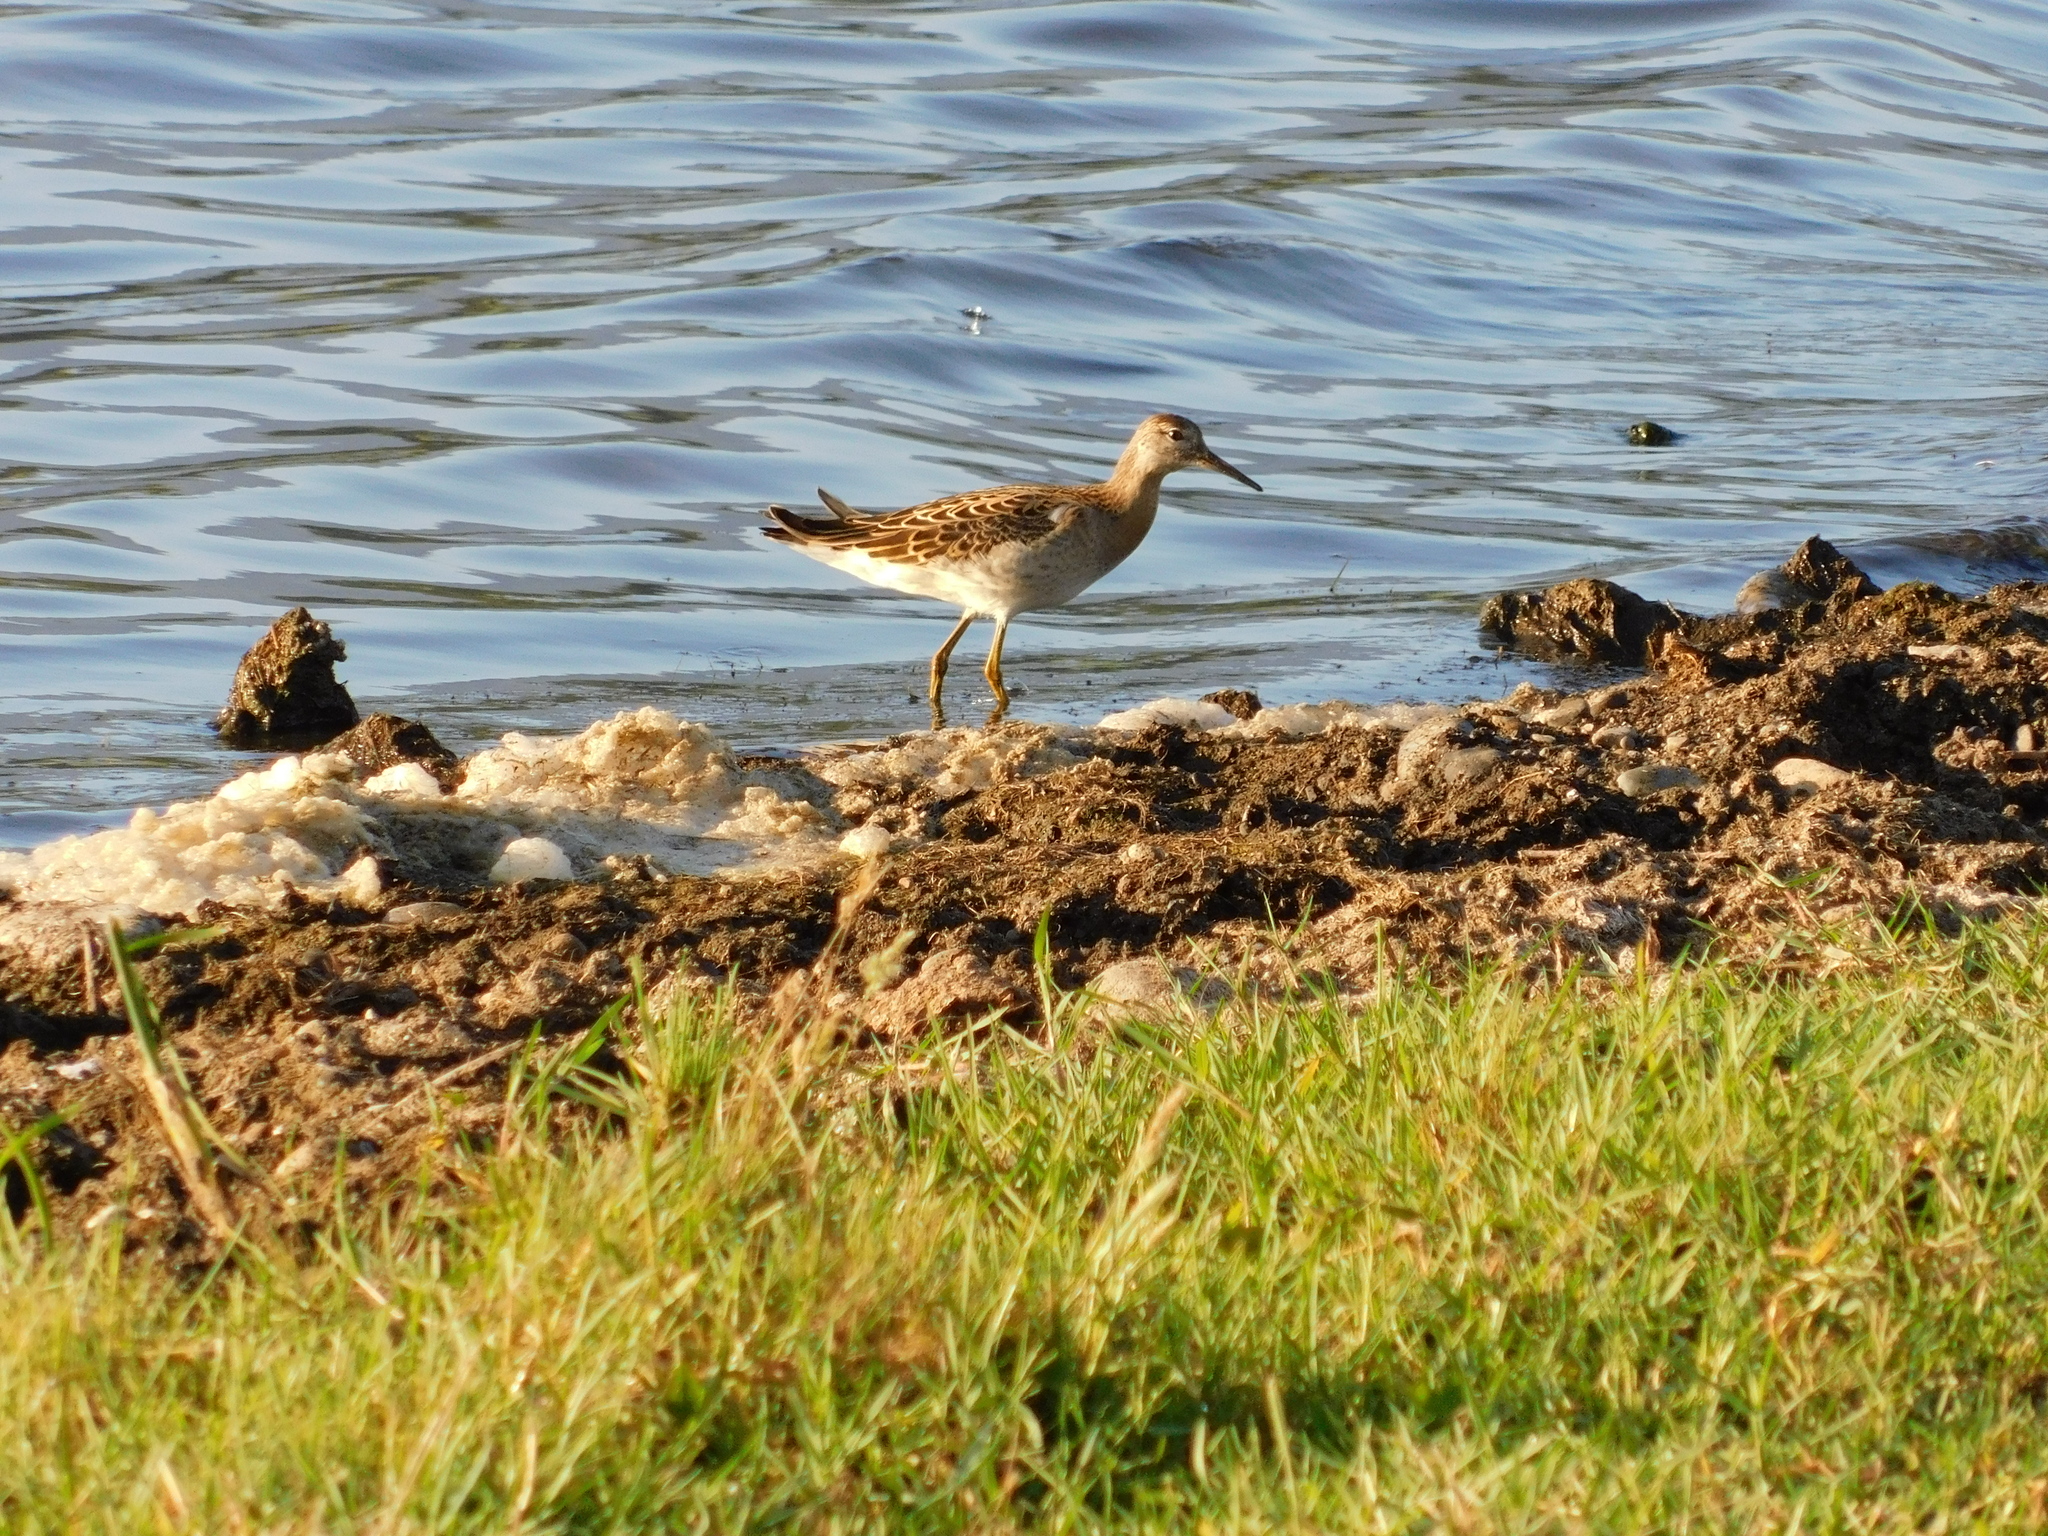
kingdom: Animalia
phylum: Chordata
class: Aves
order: Charadriiformes
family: Scolopacidae
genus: Calidris
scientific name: Calidris pugnax
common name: Ruff
